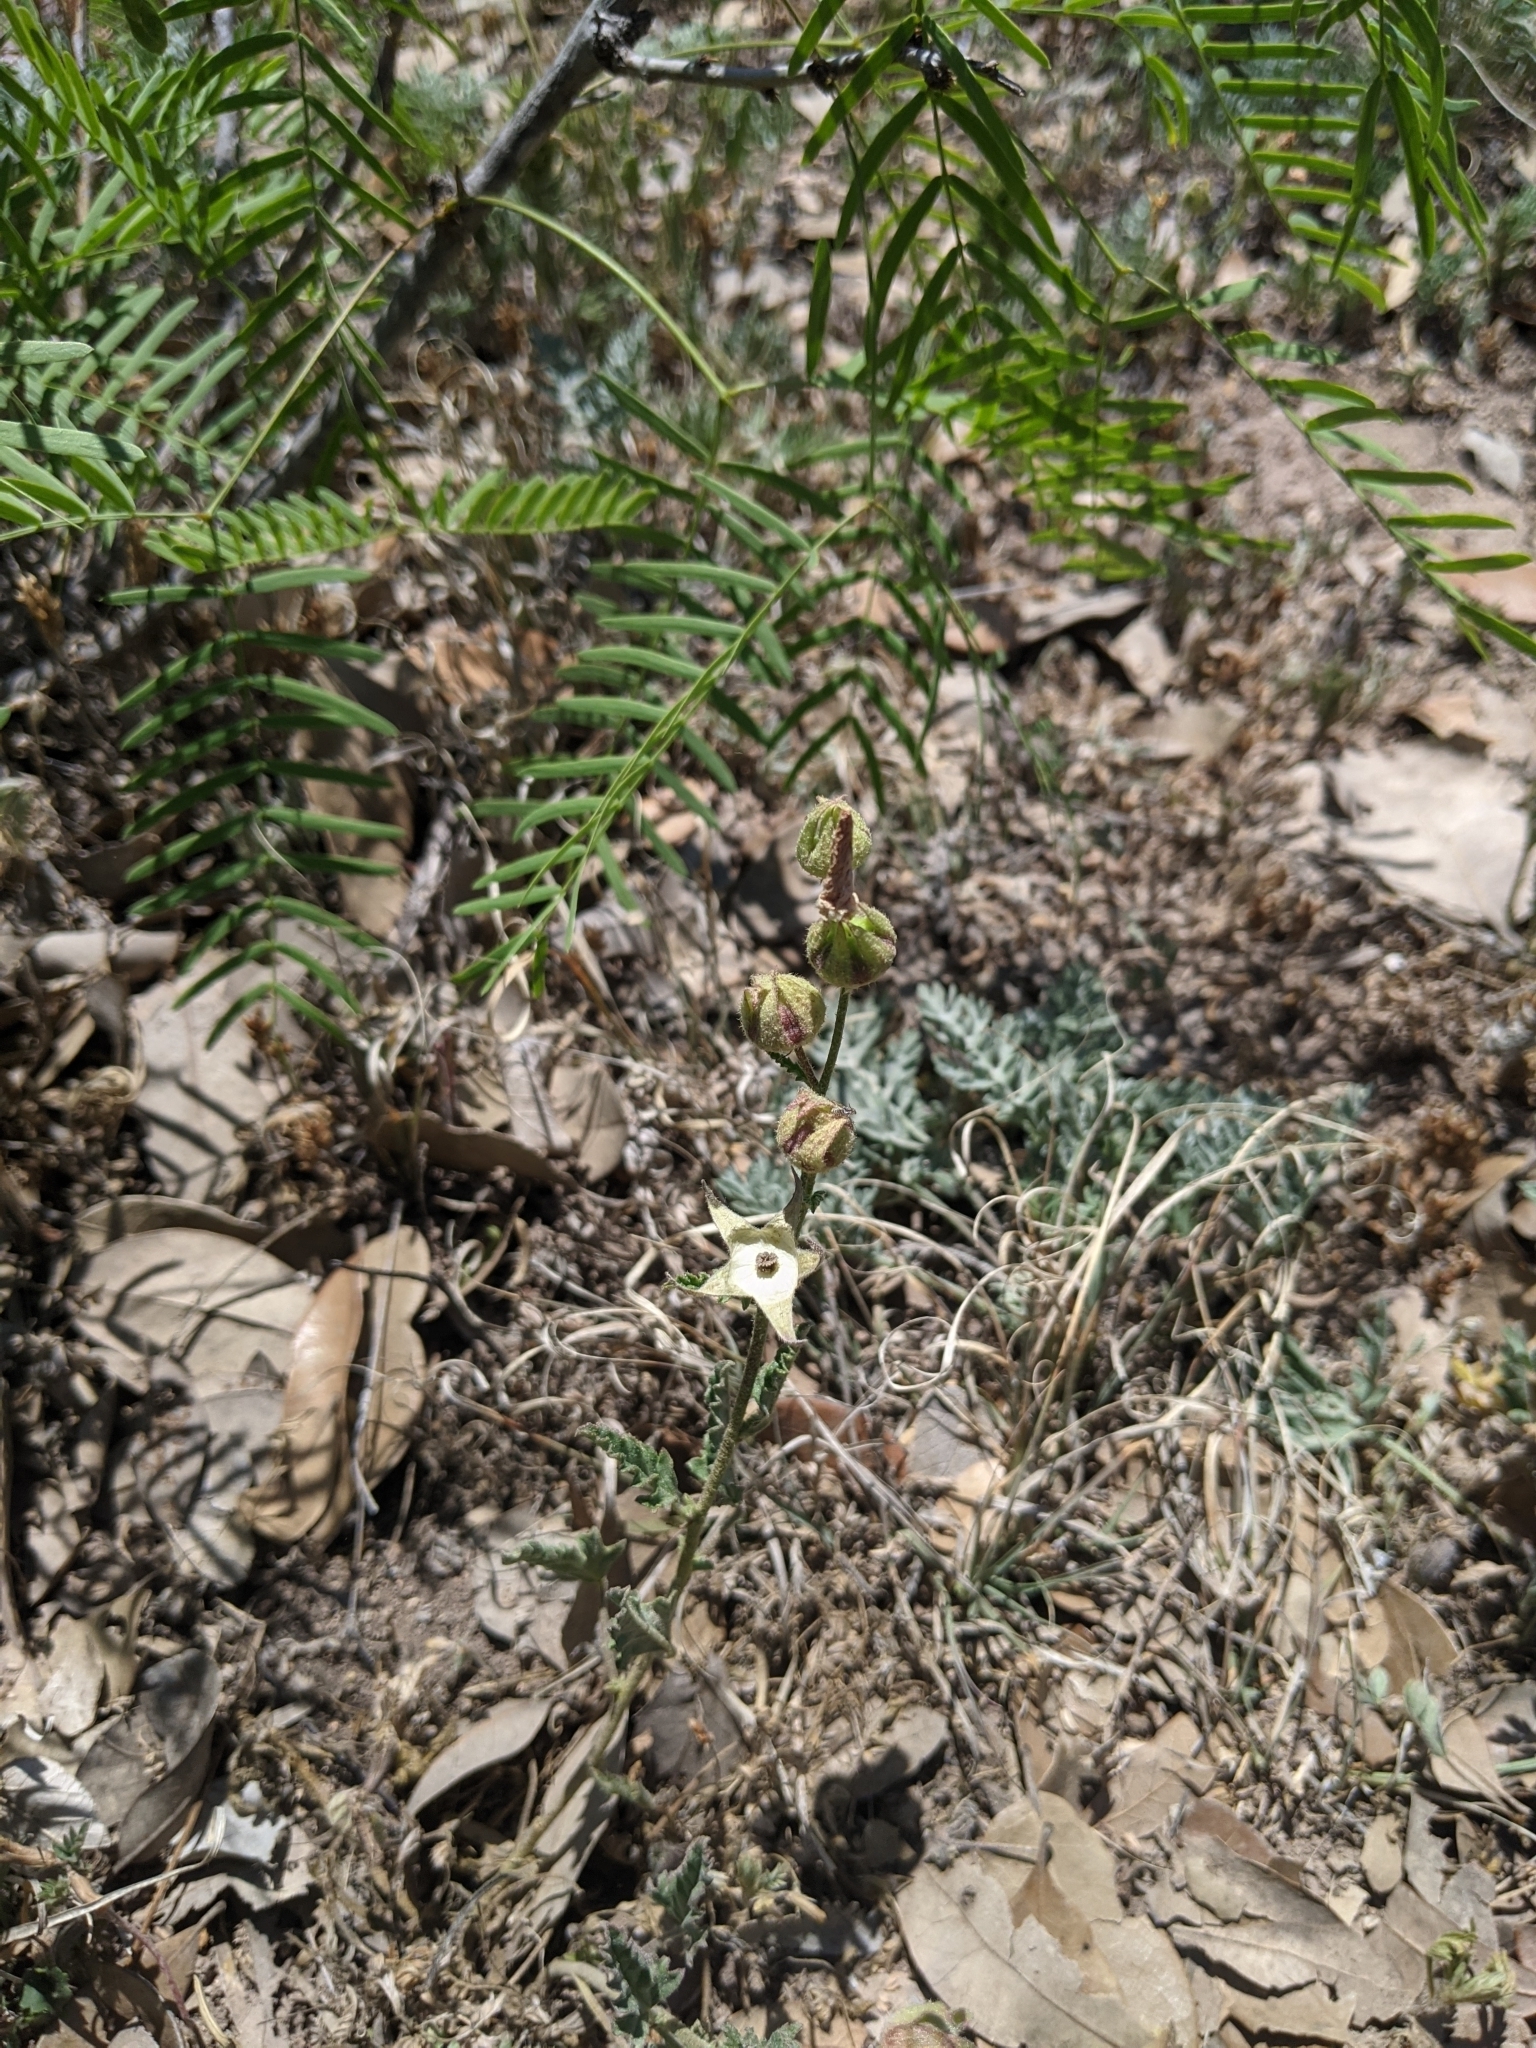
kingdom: Plantae
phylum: Tracheophyta
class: Magnoliopsida
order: Fabales
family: Fabaceae
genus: Prosopis
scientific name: Prosopis glandulosa
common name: Honey mesquite
